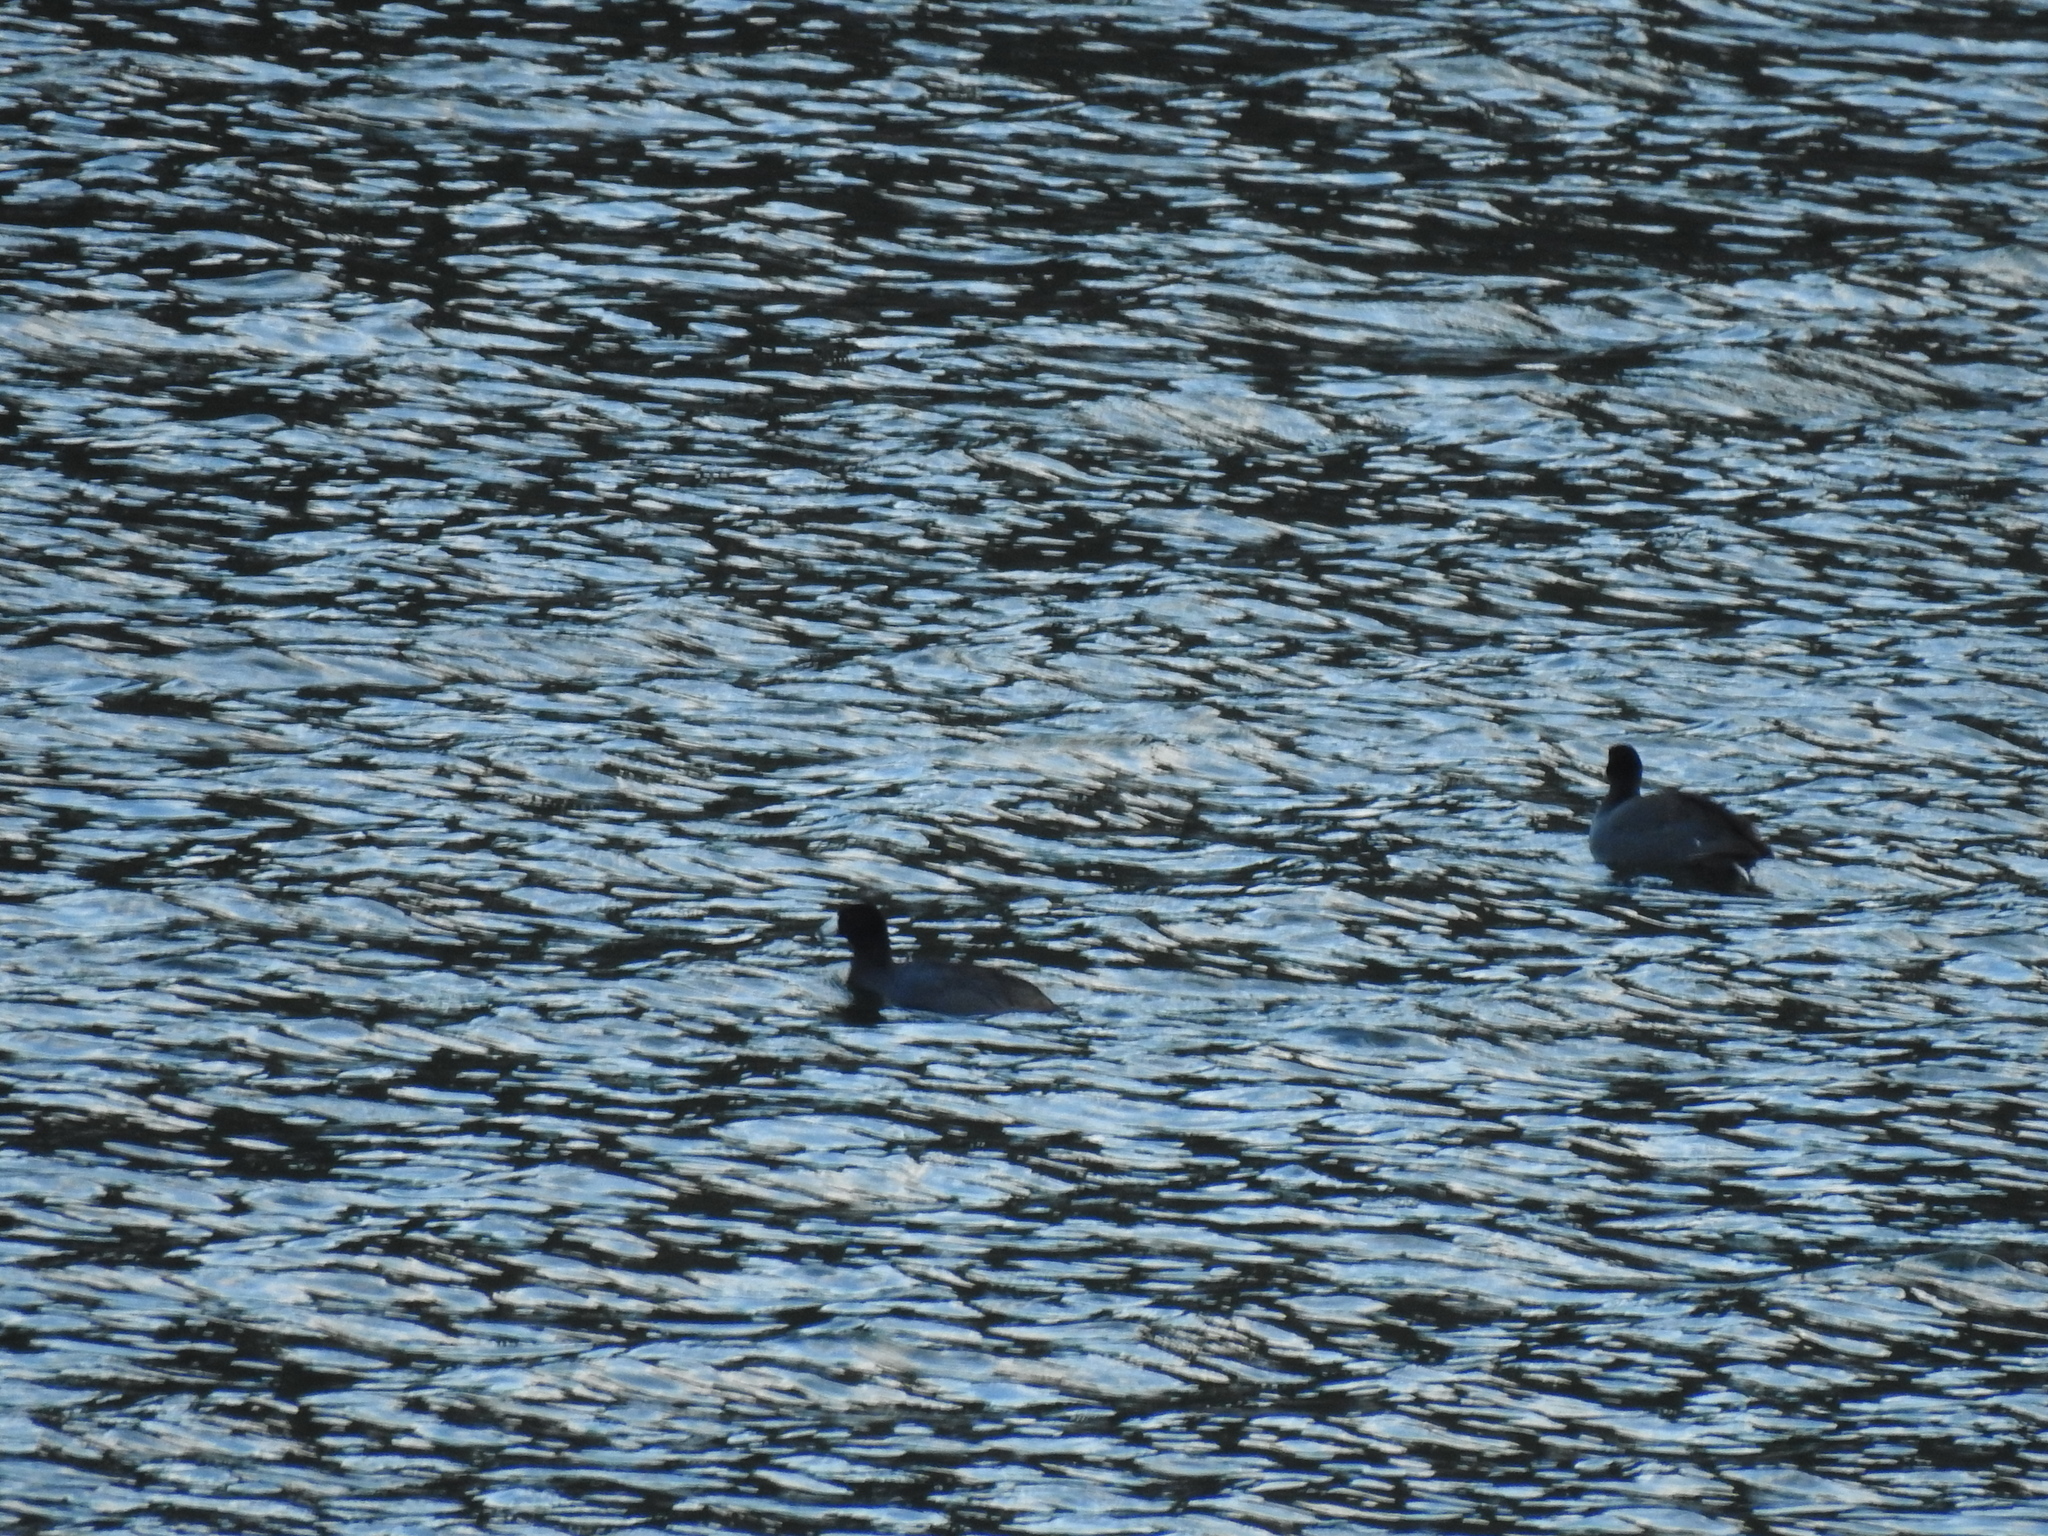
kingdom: Animalia
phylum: Chordata
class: Aves
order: Gruiformes
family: Rallidae
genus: Fulica
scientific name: Fulica americana
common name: American coot
